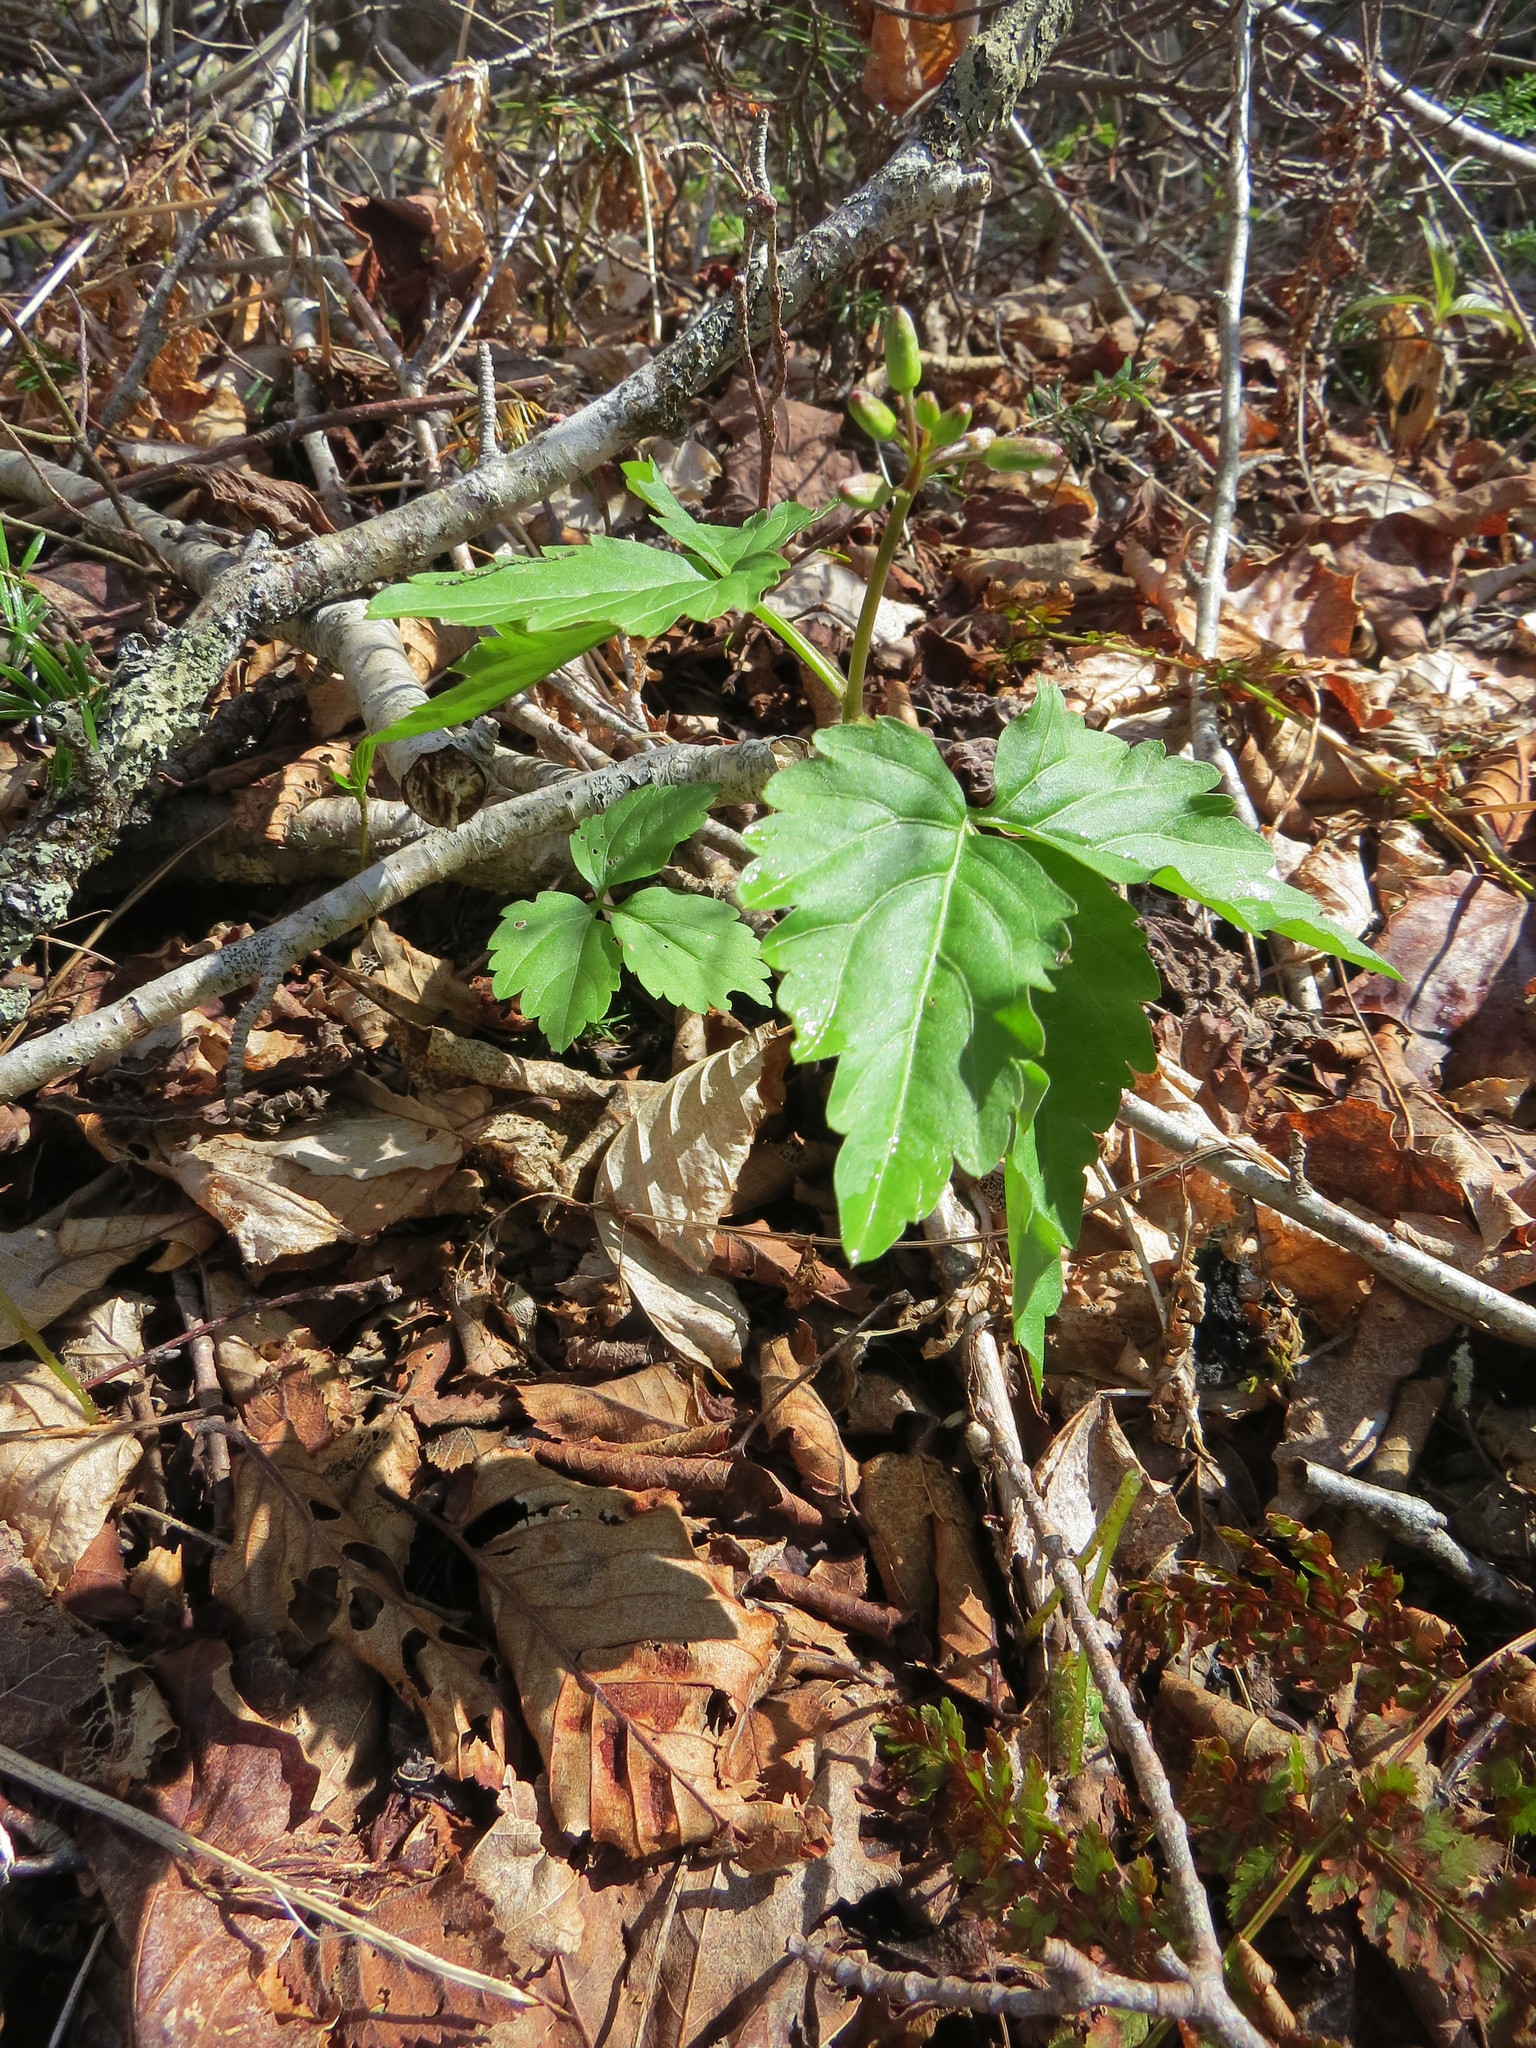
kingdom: Plantae
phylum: Tracheophyta
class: Magnoliopsida
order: Brassicales
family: Brassicaceae
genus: Cardamine
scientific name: Cardamine diphylla
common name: Broad-leaved toothwort
